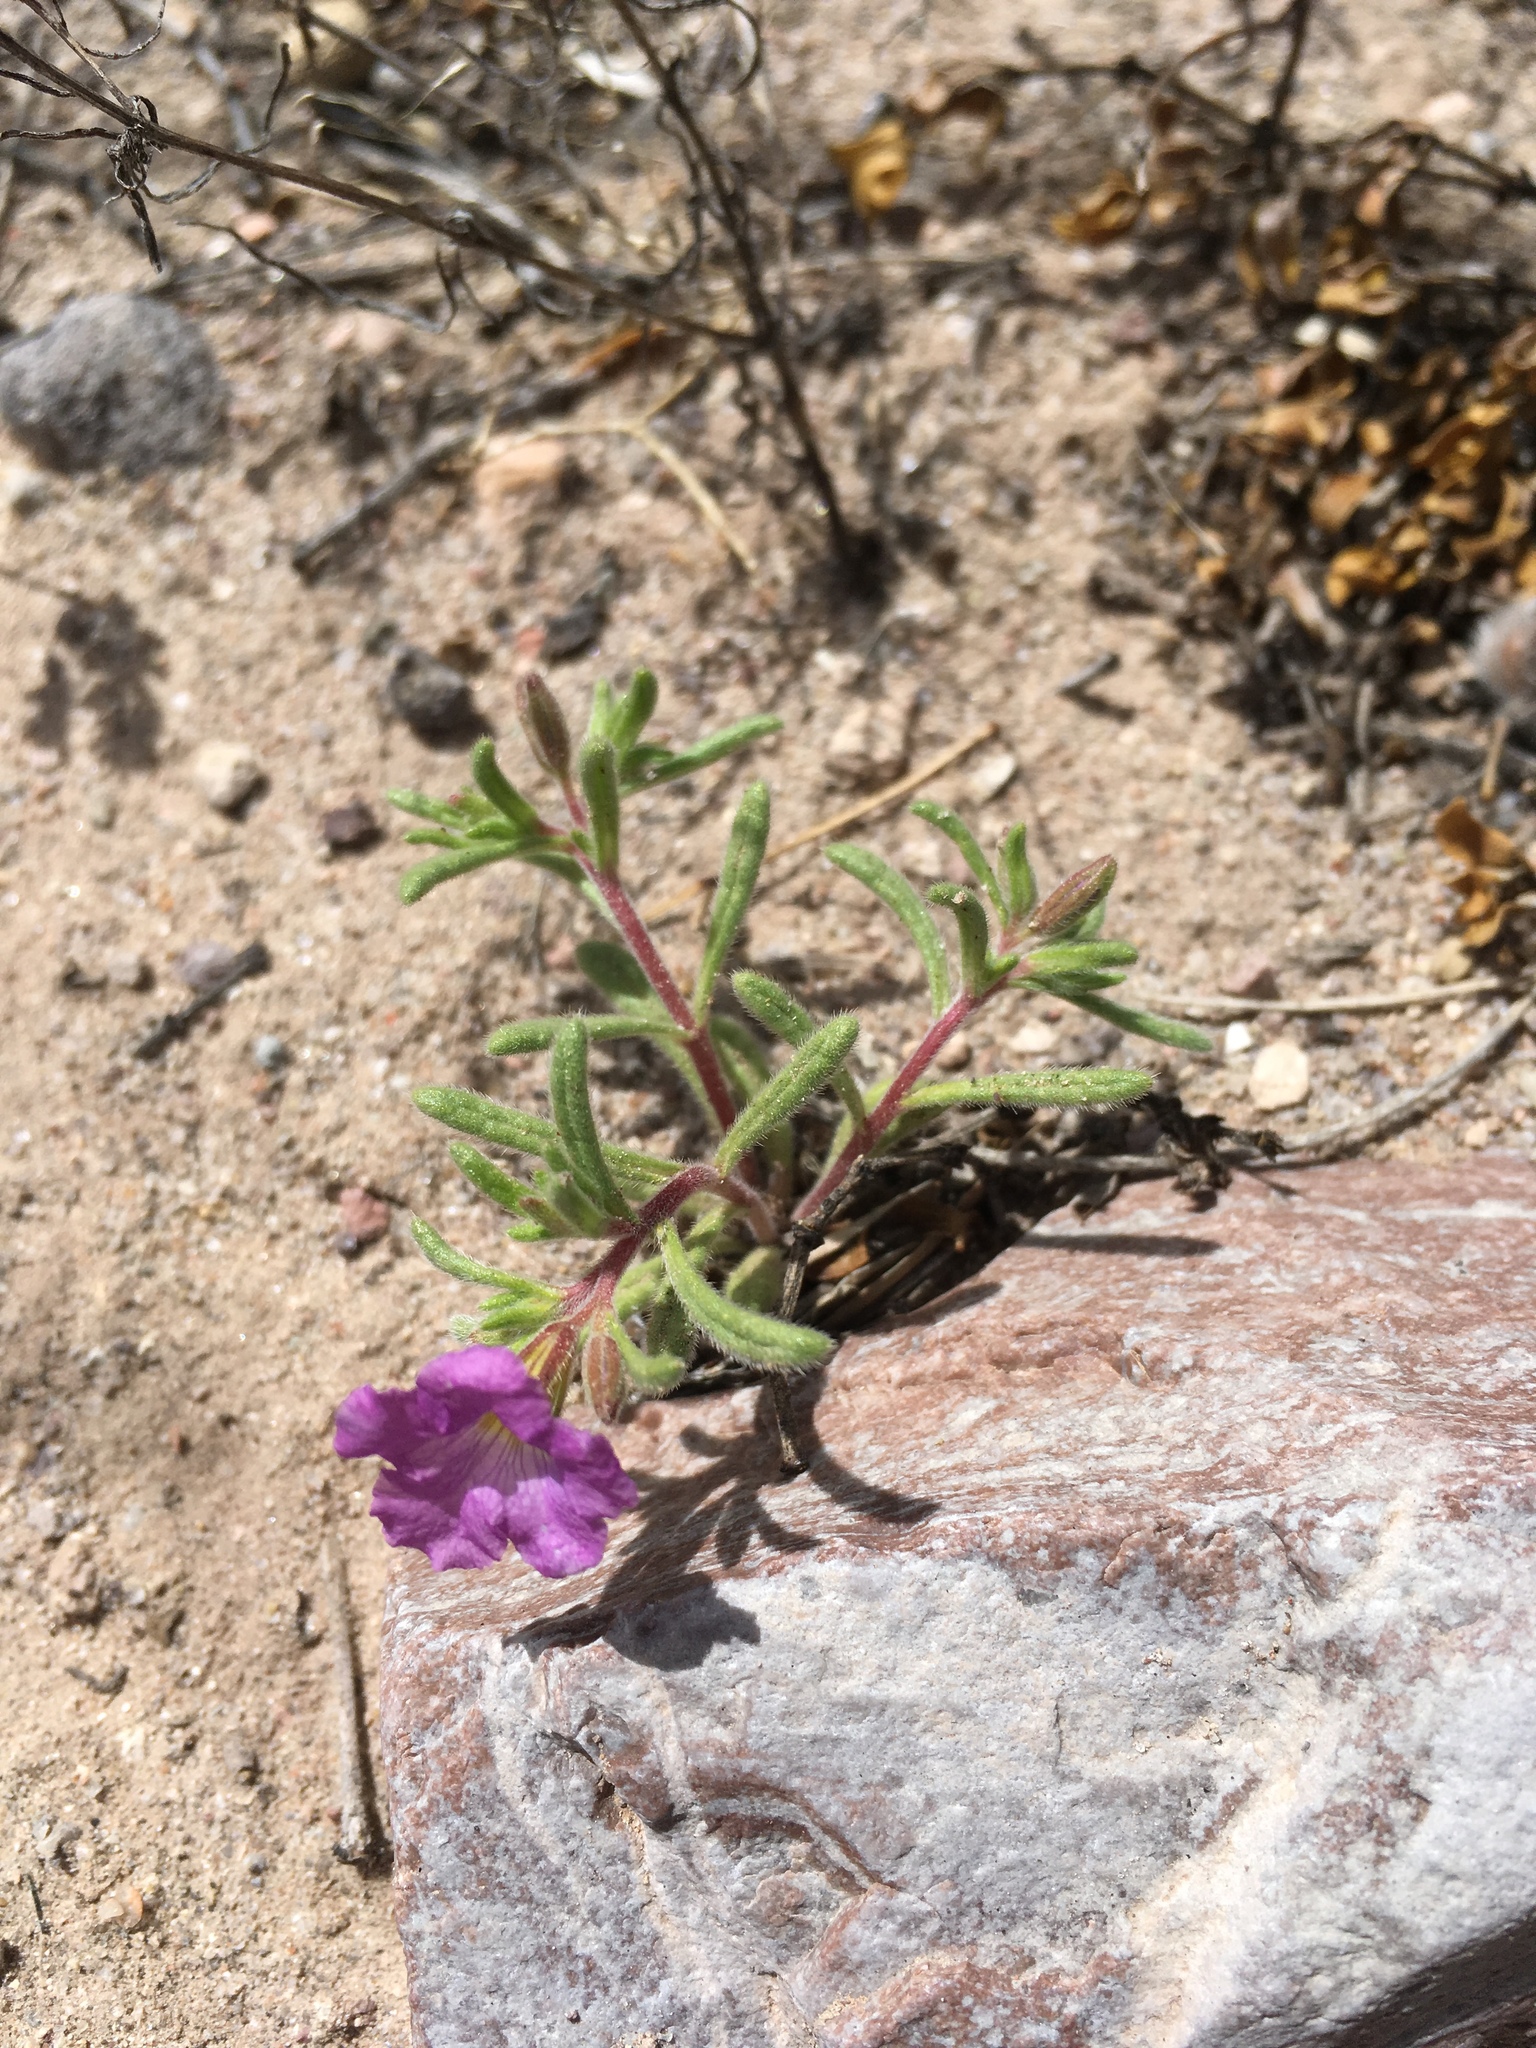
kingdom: Plantae
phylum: Tracheophyta
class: Magnoliopsida
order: Boraginales
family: Namaceae
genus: Nama
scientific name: Nama hispida
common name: Bristly nama
